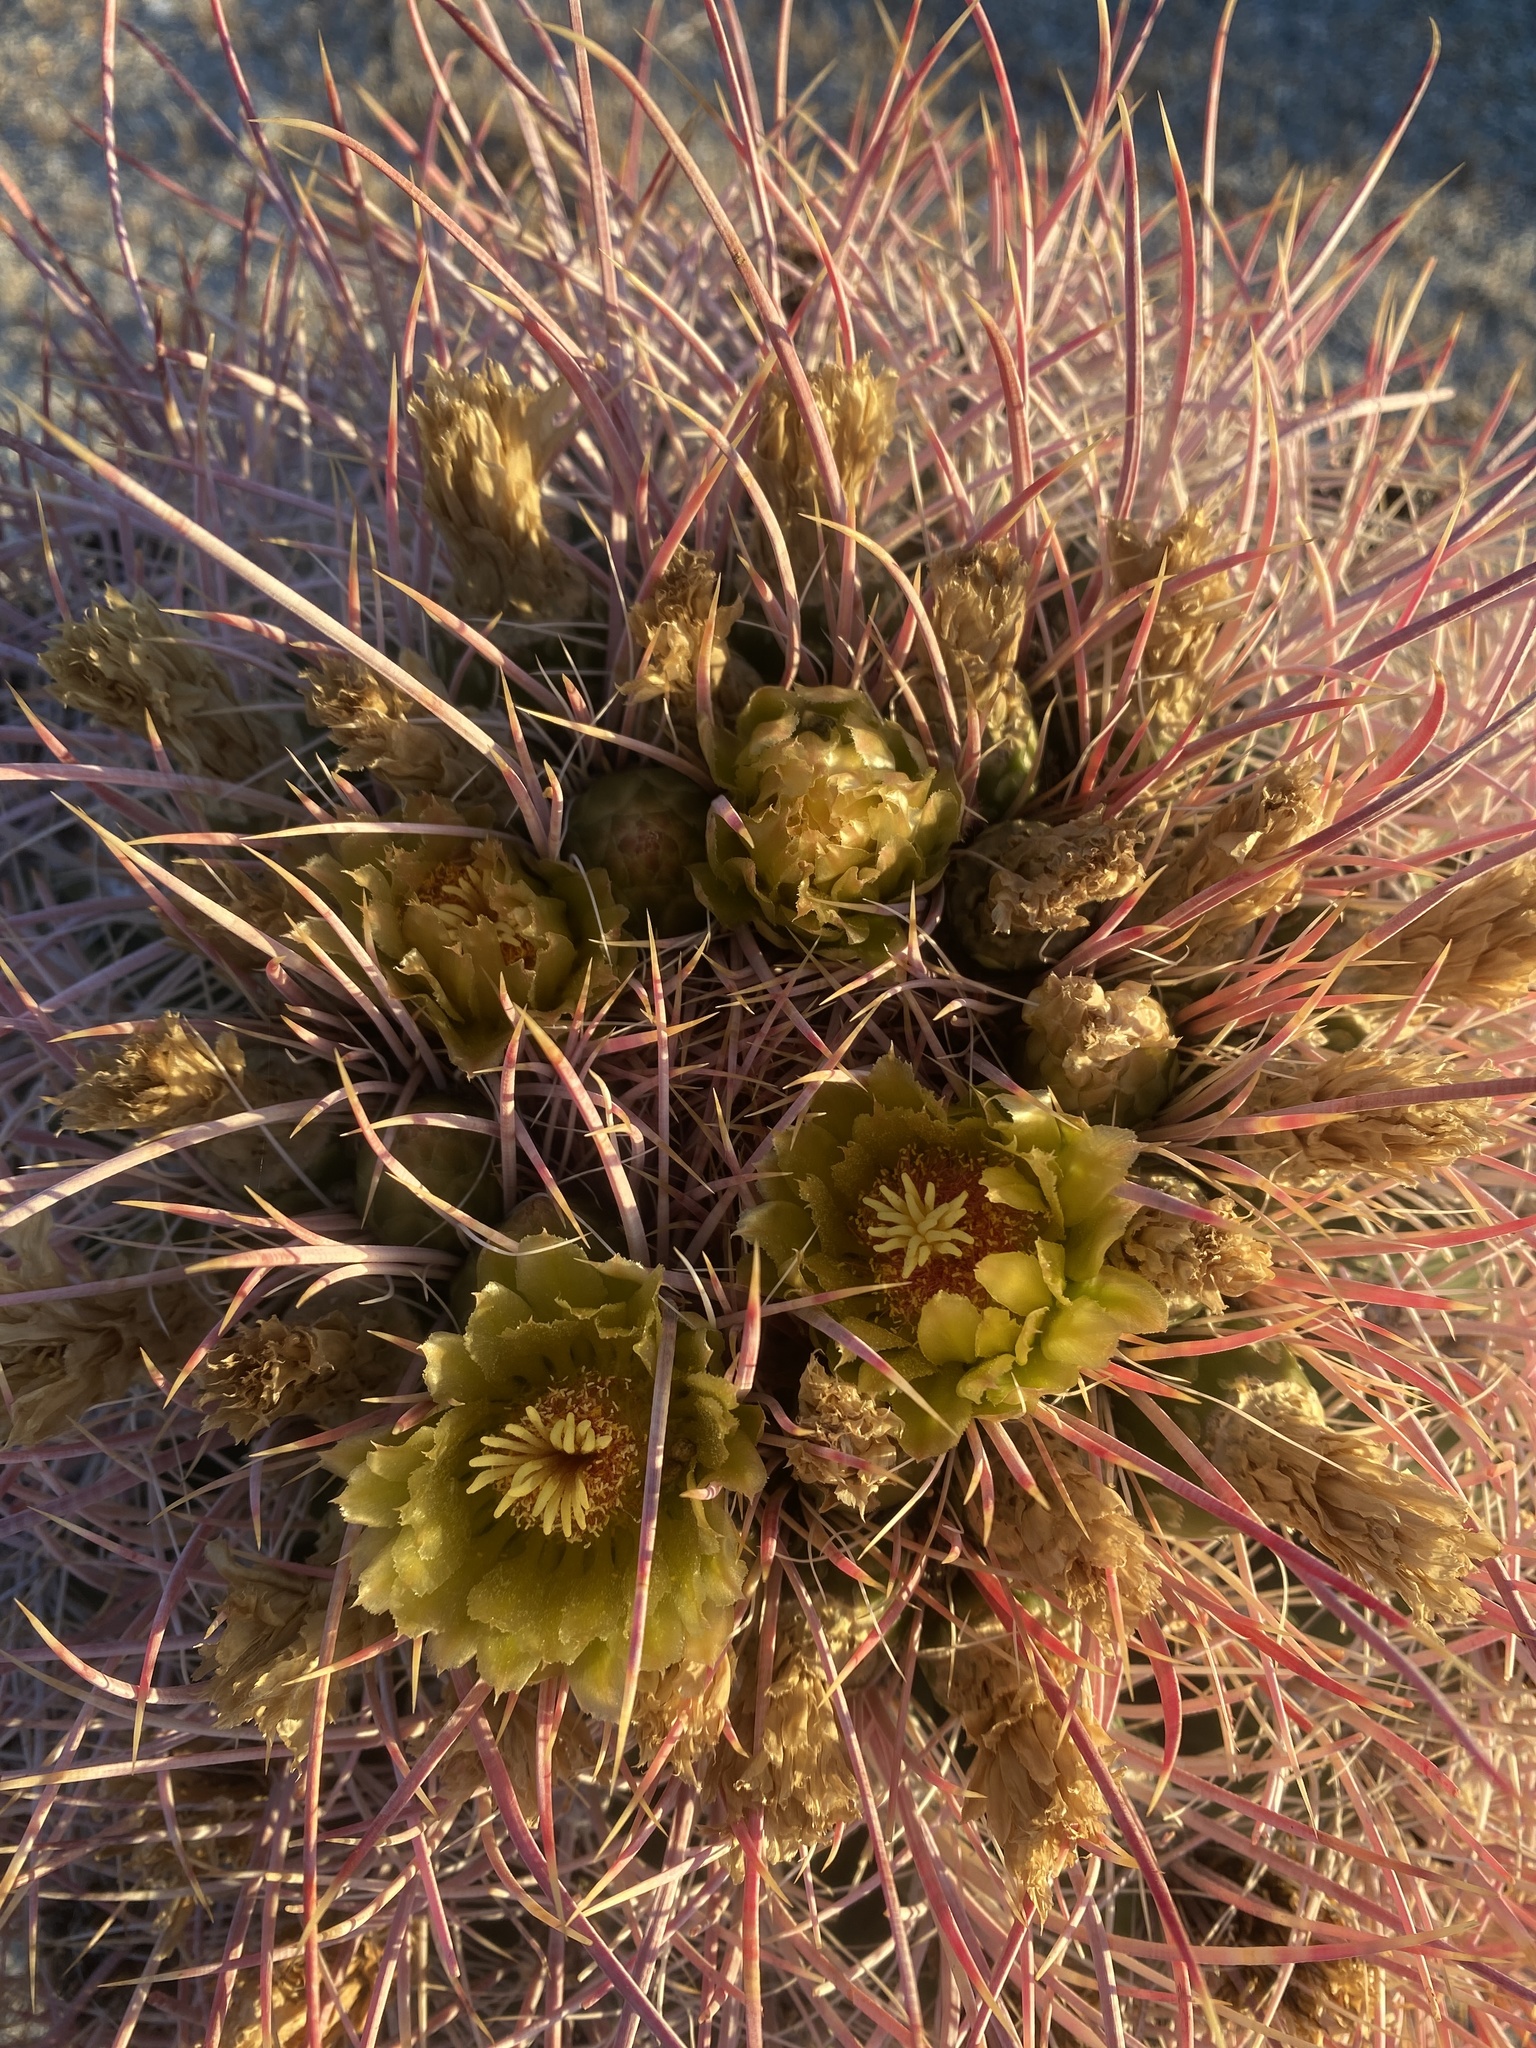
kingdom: Plantae
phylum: Tracheophyta
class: Magnoliopsida
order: Caryophyllales
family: Cactaceae
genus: Ferocactus
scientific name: Ferocactus cylindraceus
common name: California barrel cactus
